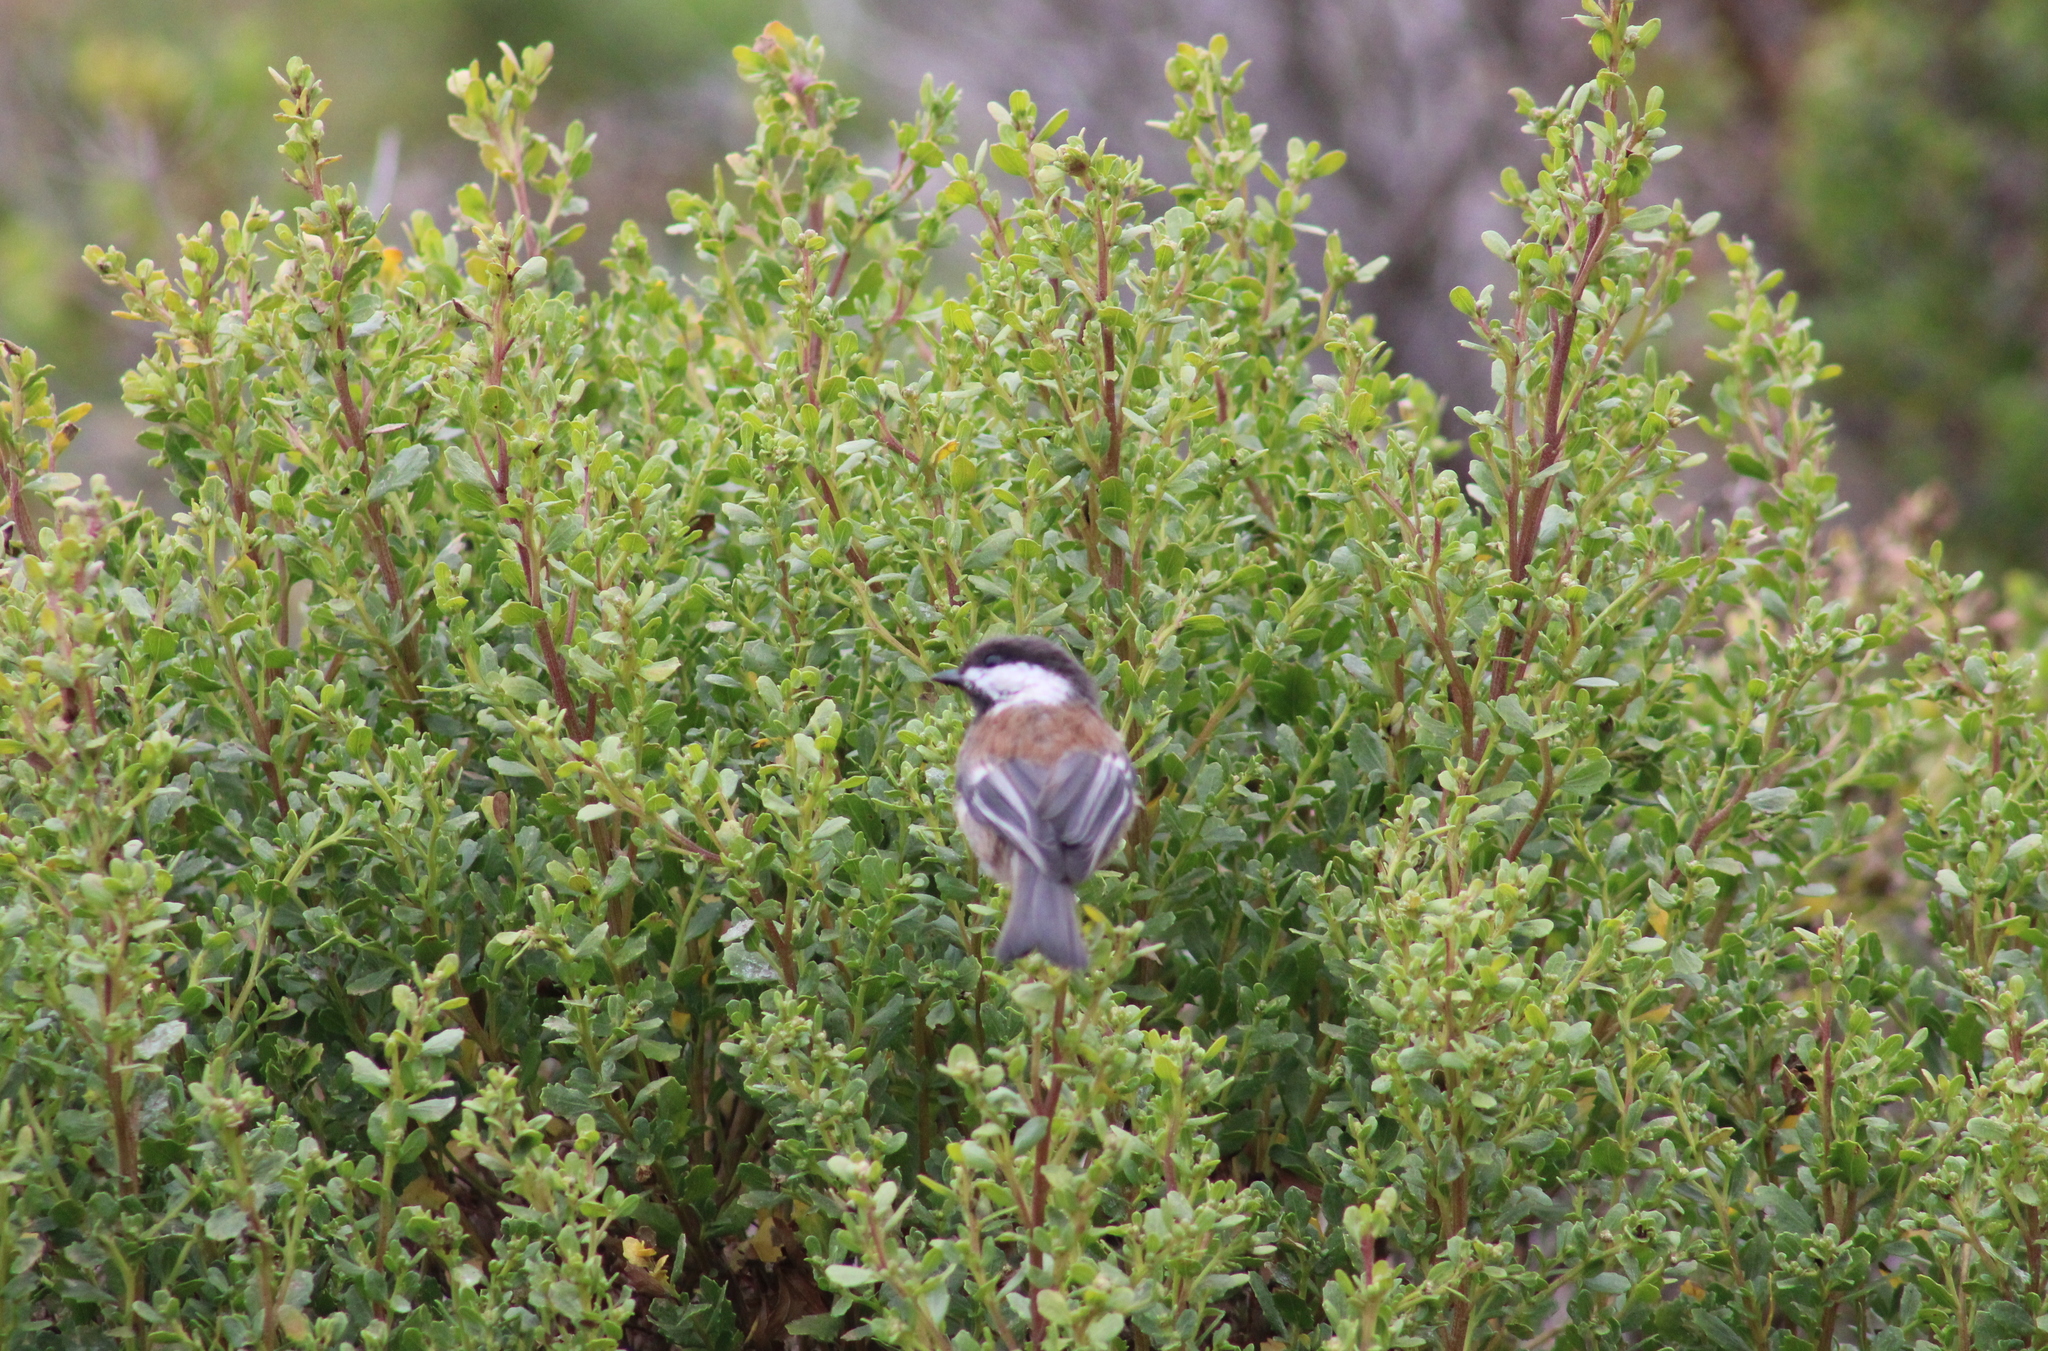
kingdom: Animalia
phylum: Chordata
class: Aves
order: Passeriformes
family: Paridae
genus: Poecile
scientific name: Poecile rufescens
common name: Chestnut-backed chickadee
